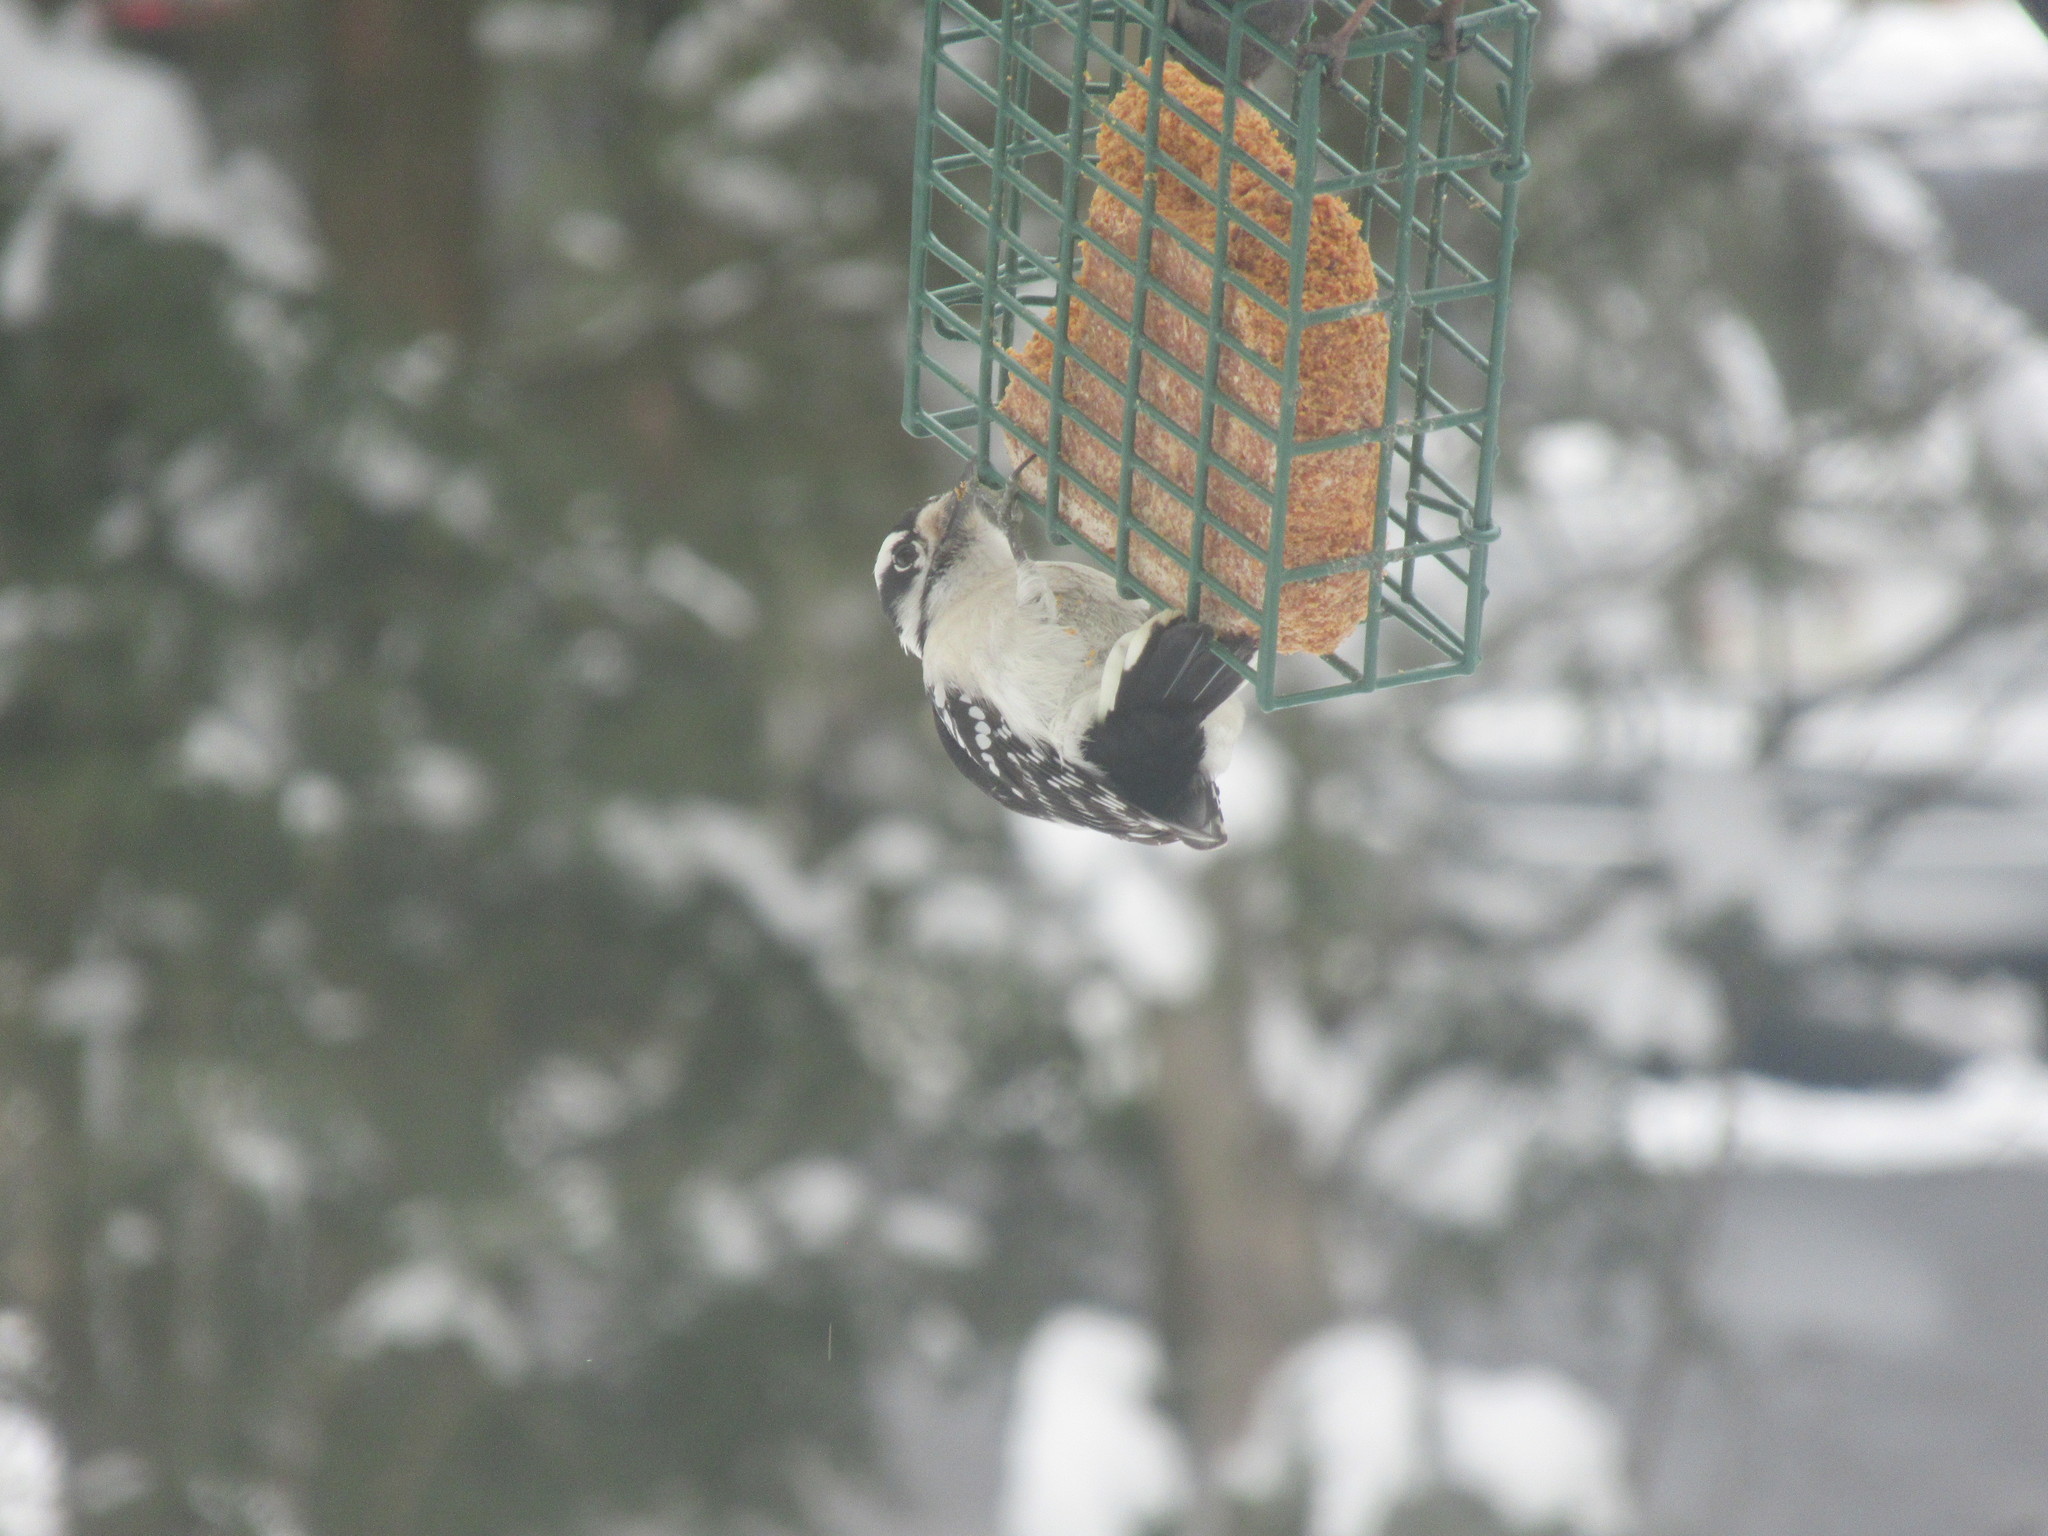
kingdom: Animalia
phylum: Chordata
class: Aves
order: Piciformes
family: Picidae
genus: Dryobates
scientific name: Dryobates pubescens
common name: Downy woodpecker
